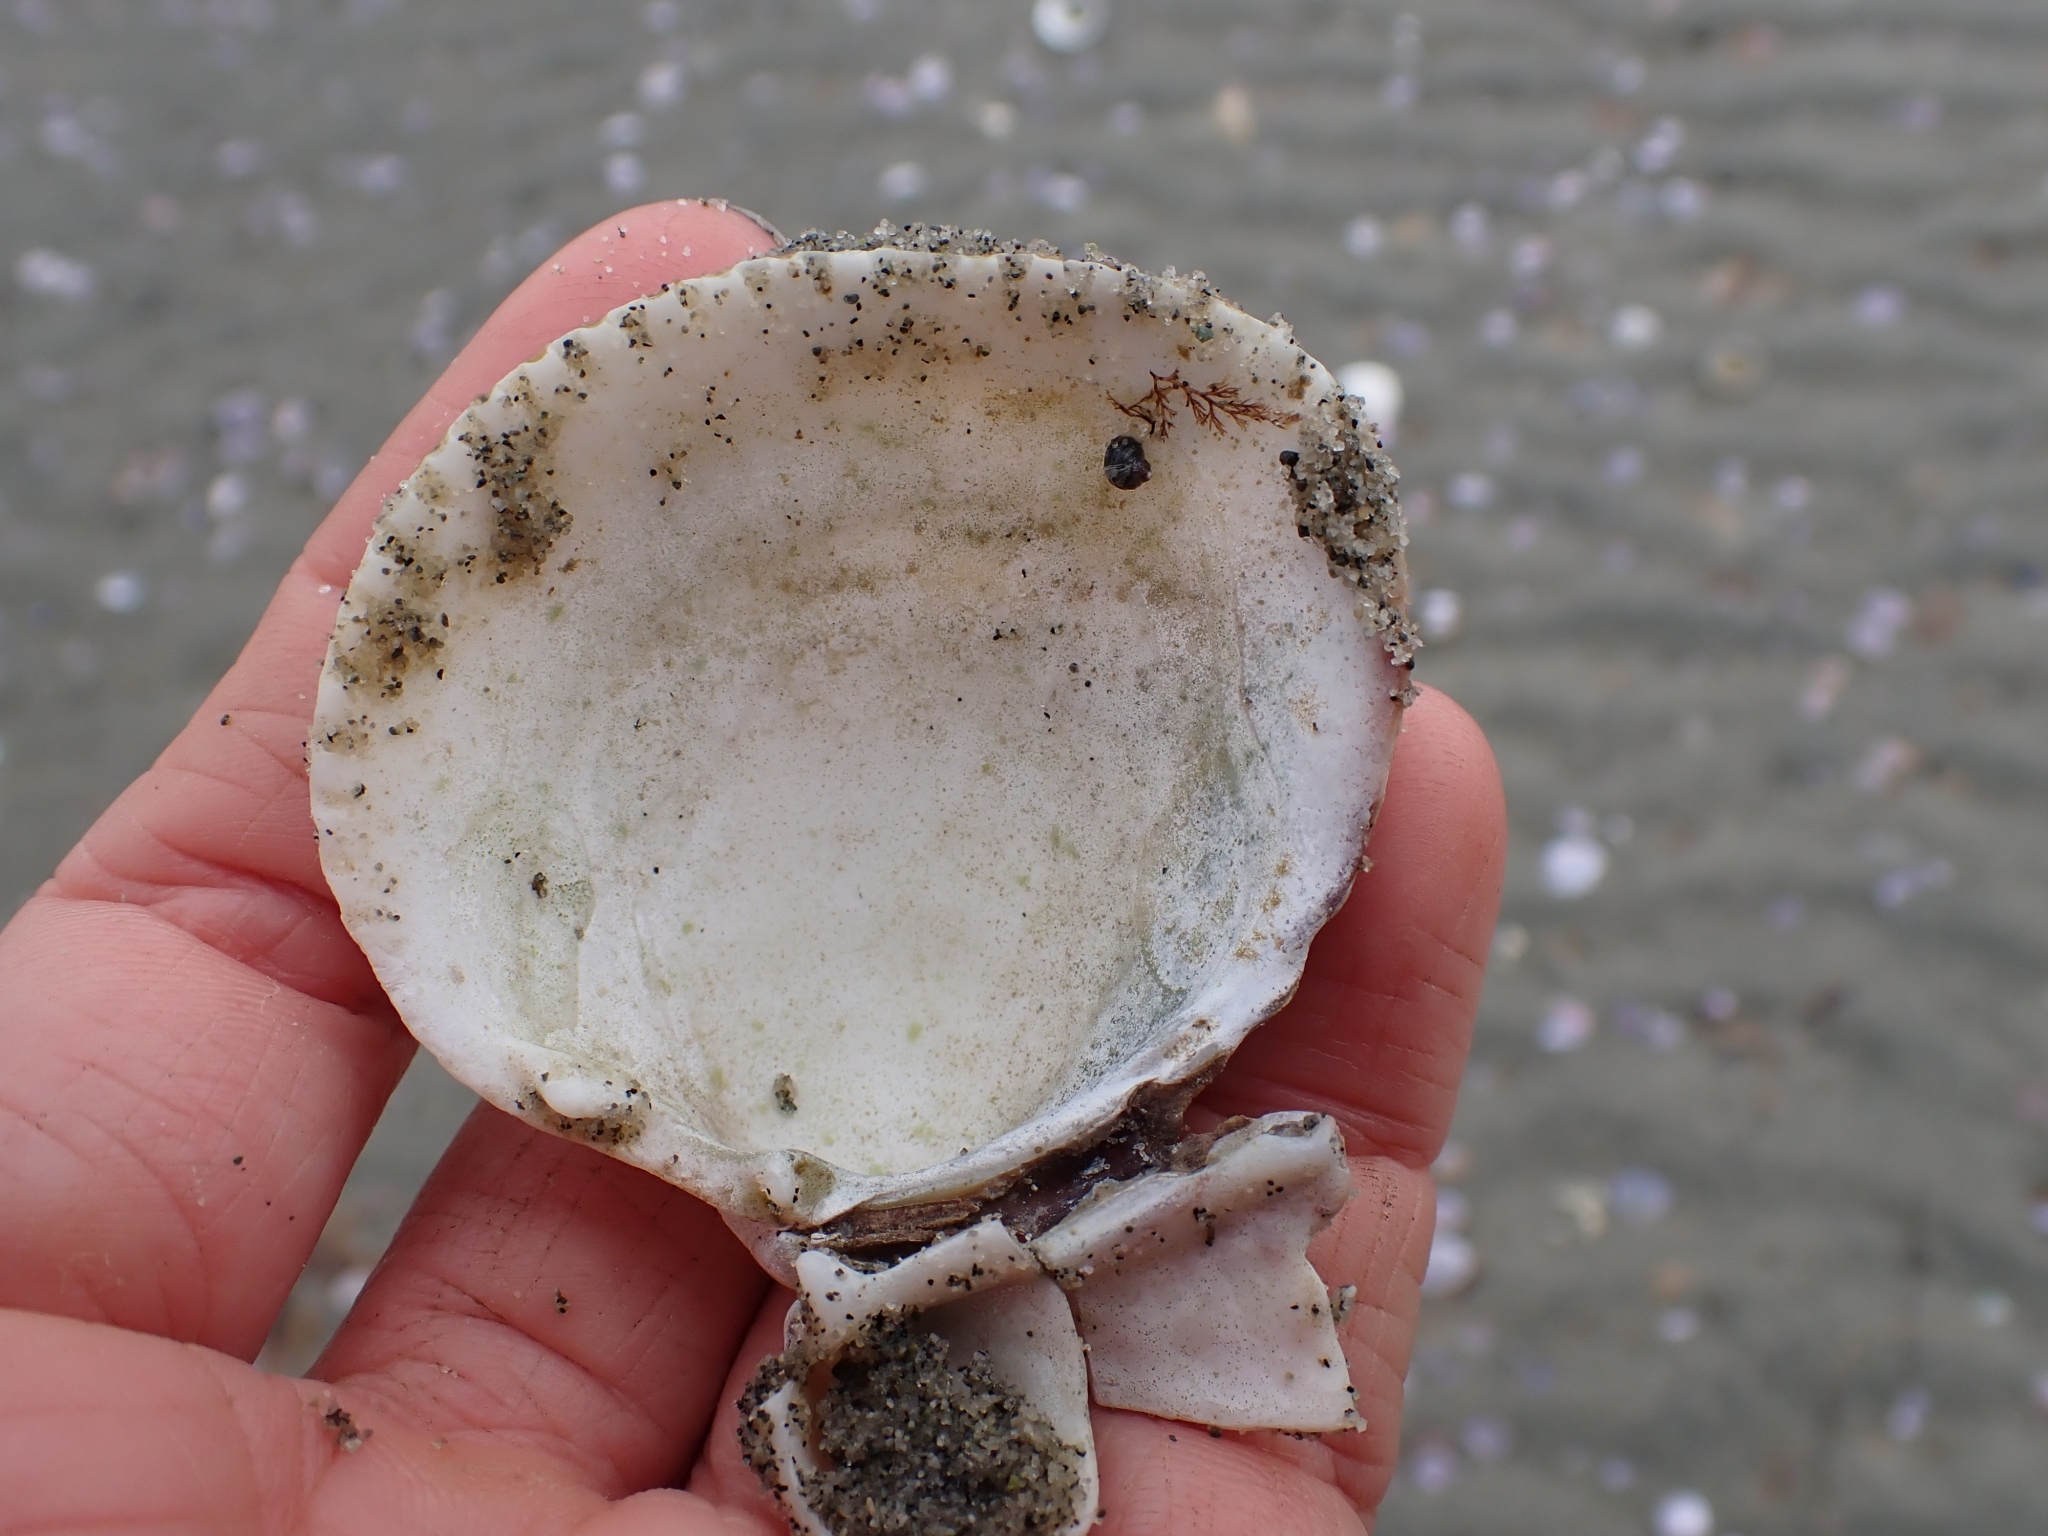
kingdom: Animalia
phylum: Mollusca
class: Bivalvia
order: Cardiida
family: Cardiidae
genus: Clinocardium
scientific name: Clinocardium nuttallii
